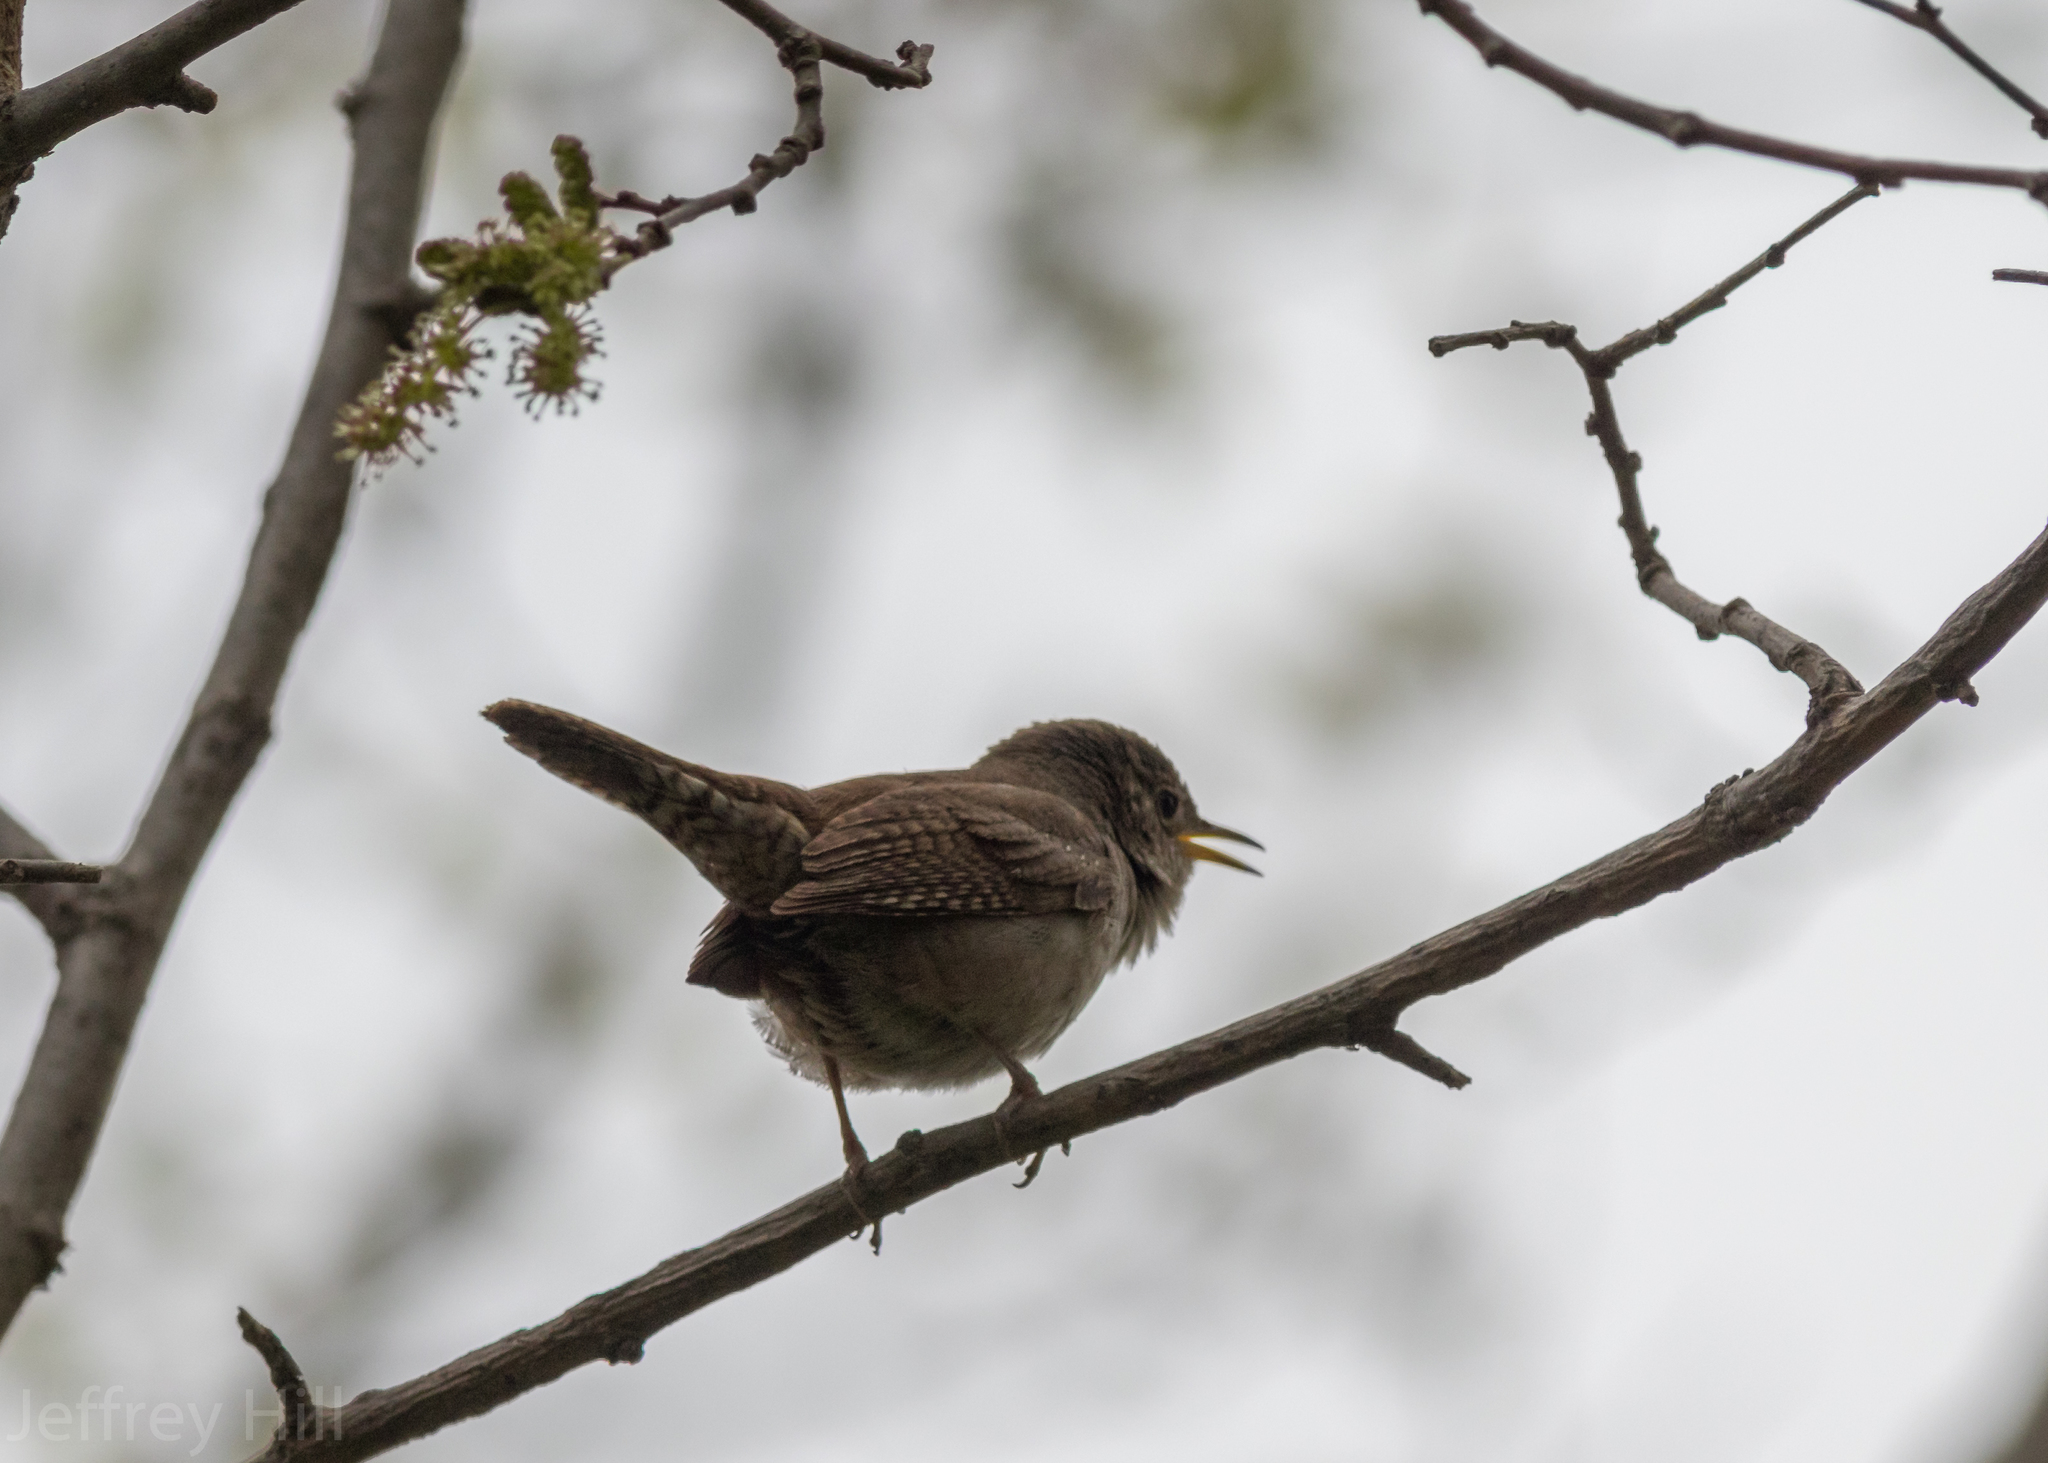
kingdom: Animalia
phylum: Chordata
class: Aves
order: Passeriformes
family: Troglodytidae
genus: Troglodytes
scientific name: Troglodytes aedon
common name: House wren
